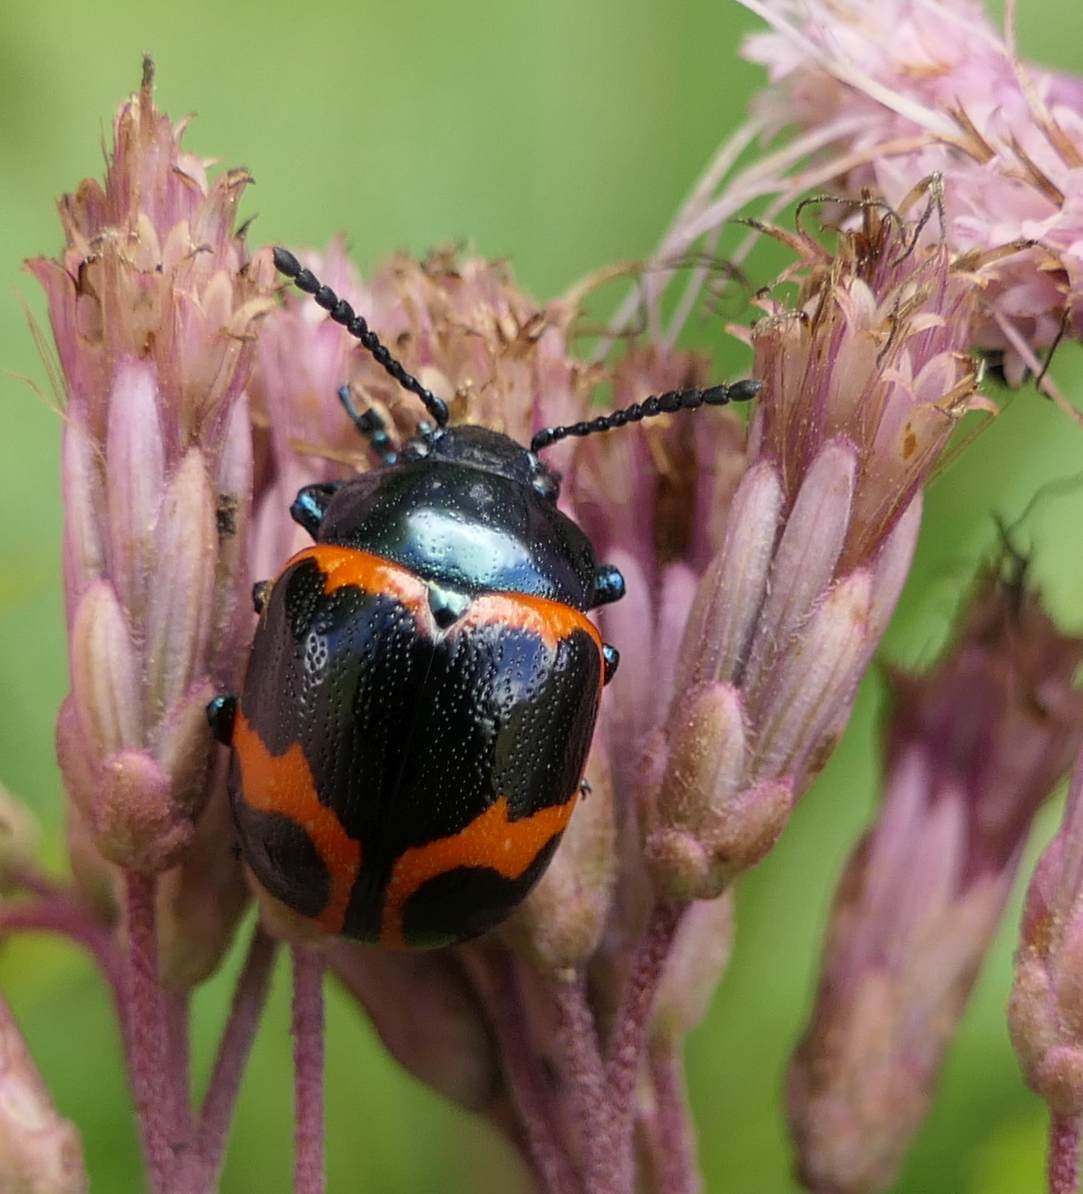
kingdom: Animalia
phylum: Arthropoda
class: Insecta
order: Coleoptera
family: Chrysomelidae
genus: Labidomera
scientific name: Labidomera clivicollis
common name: Swamp milkweed leaf beetle
